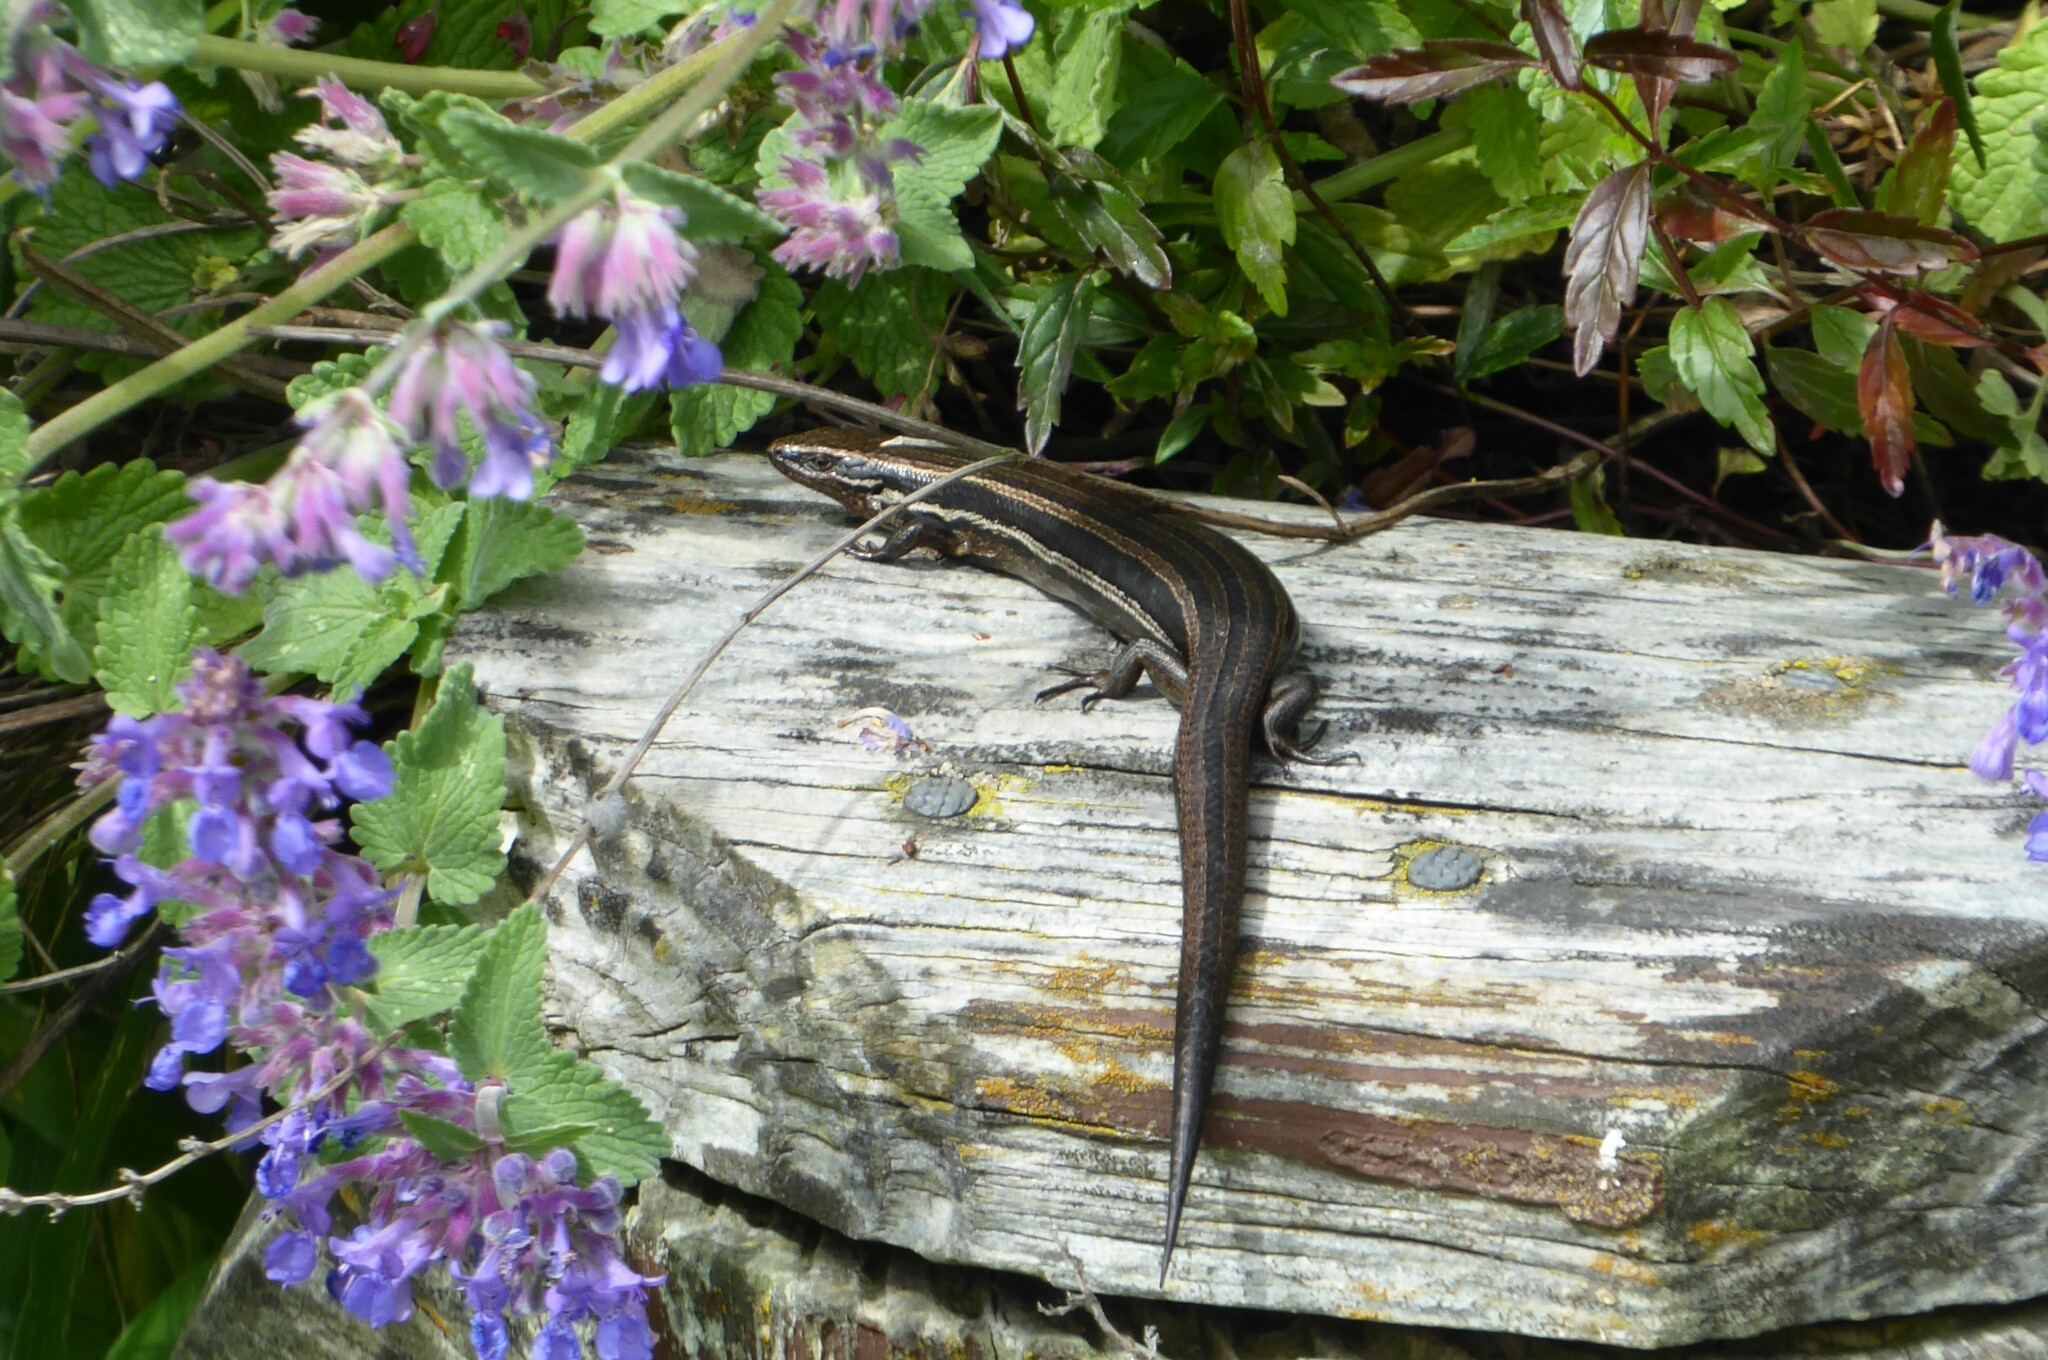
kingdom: Animalia
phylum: Chordata
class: Squamata
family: Scincidae
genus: Oligosoma
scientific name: Oligosoma polychroma
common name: Common new zealand skink
